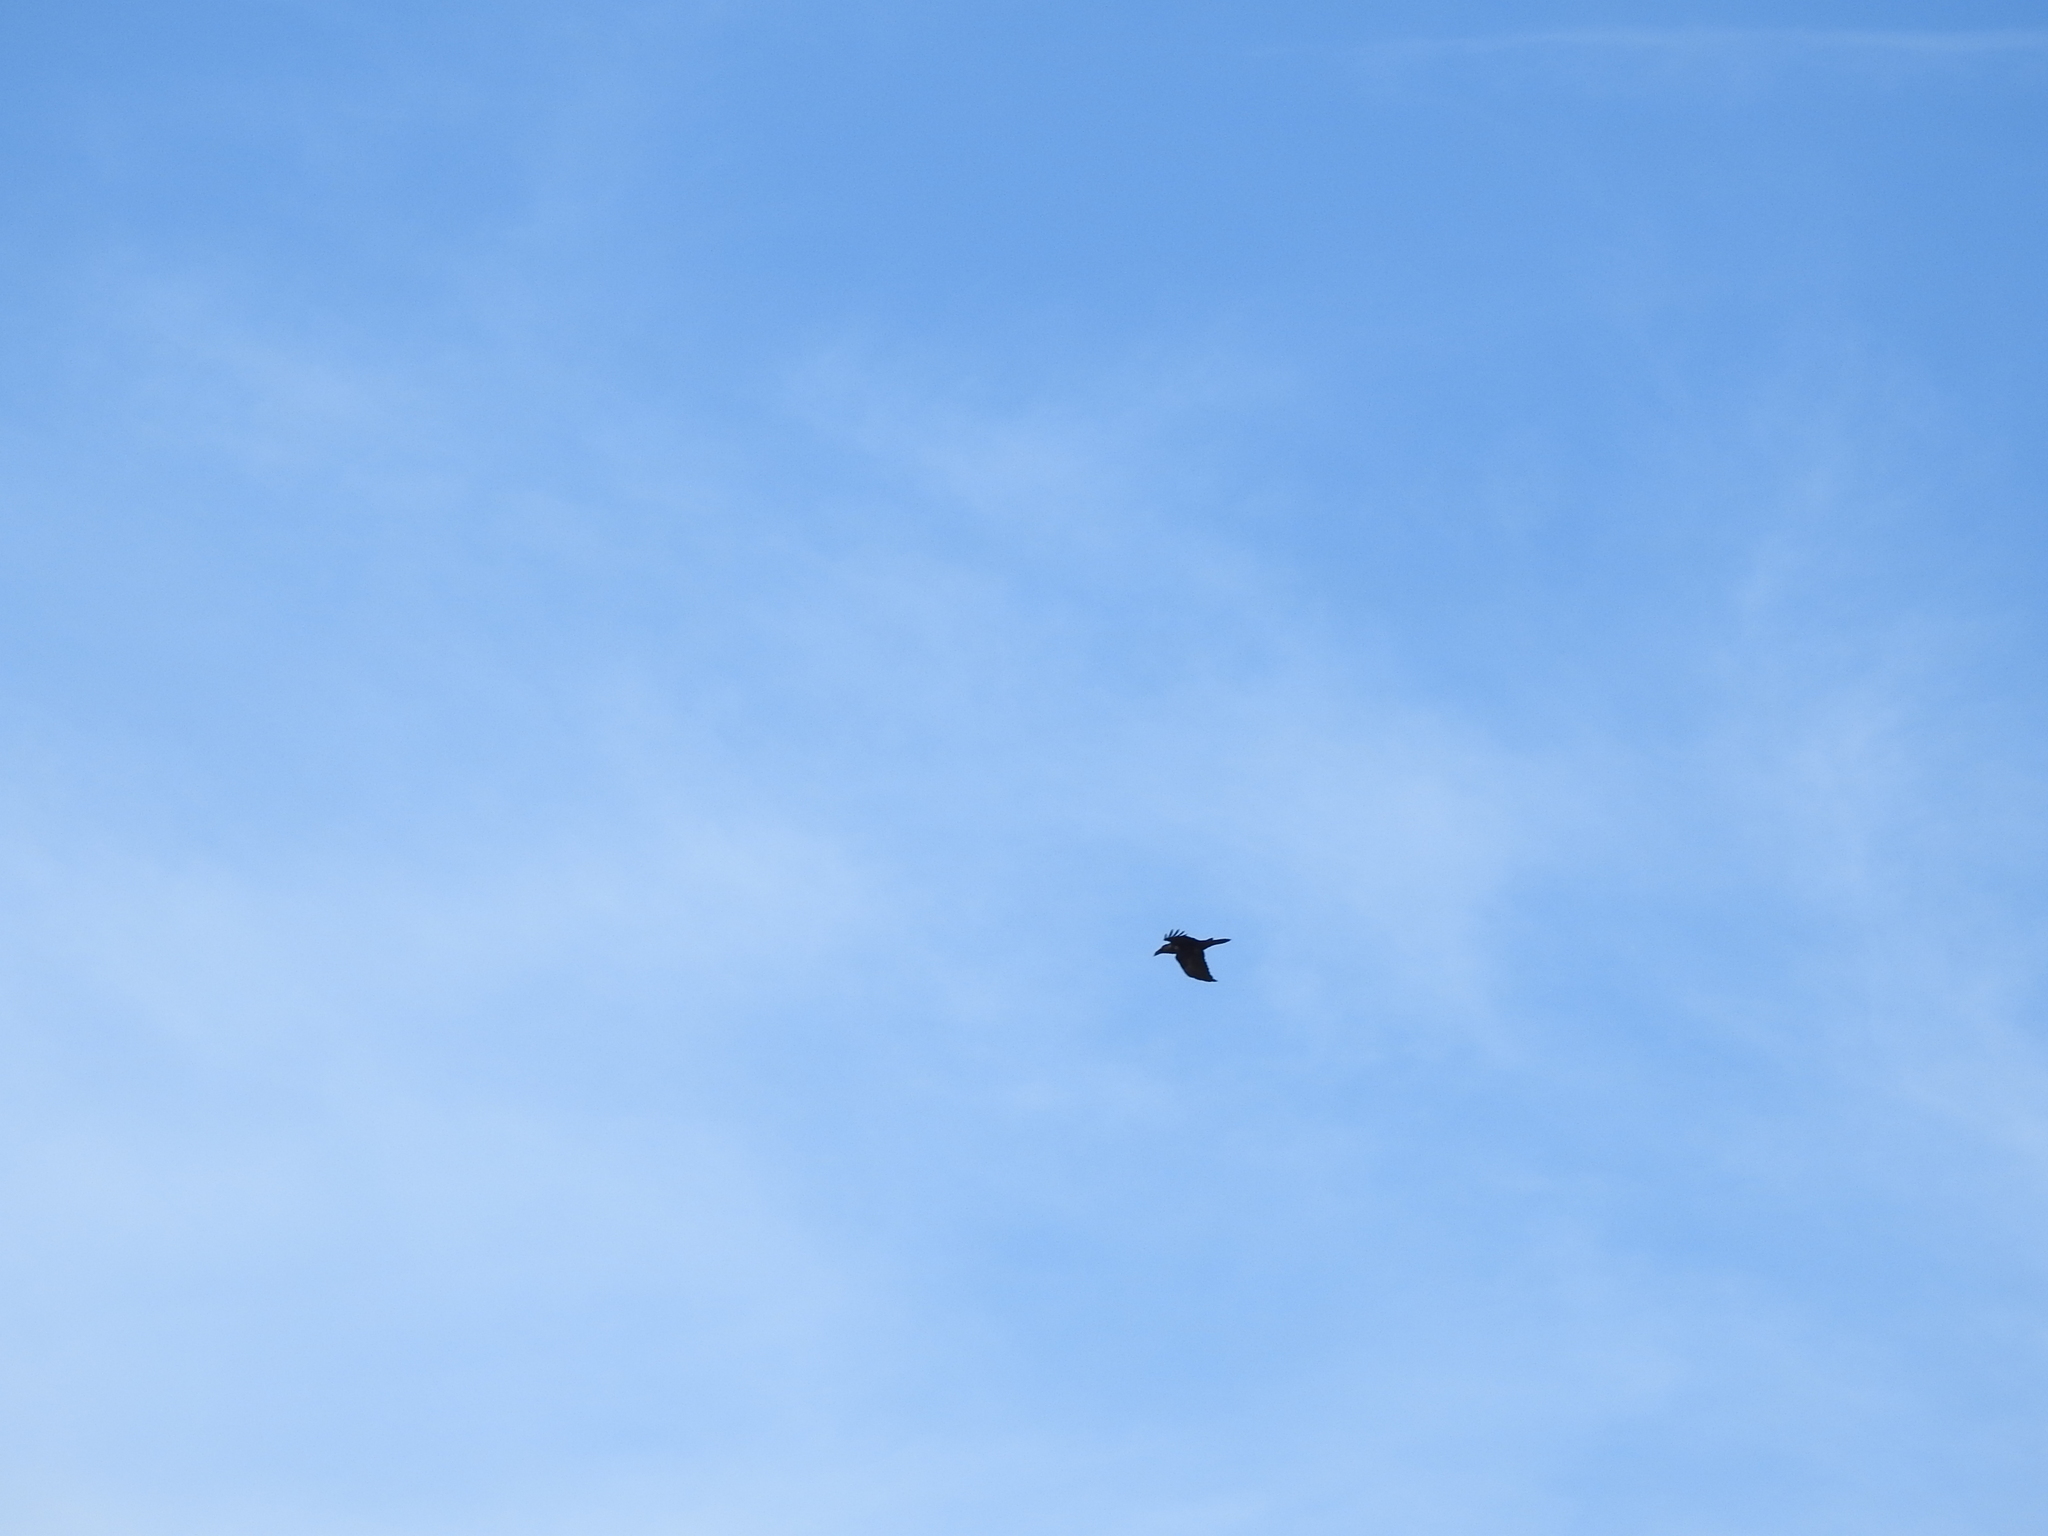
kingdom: Animalia
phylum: Chordata
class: Aves
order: Passeriformes
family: Corvidae
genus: Corvus
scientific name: Corvus corax
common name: Common raven
